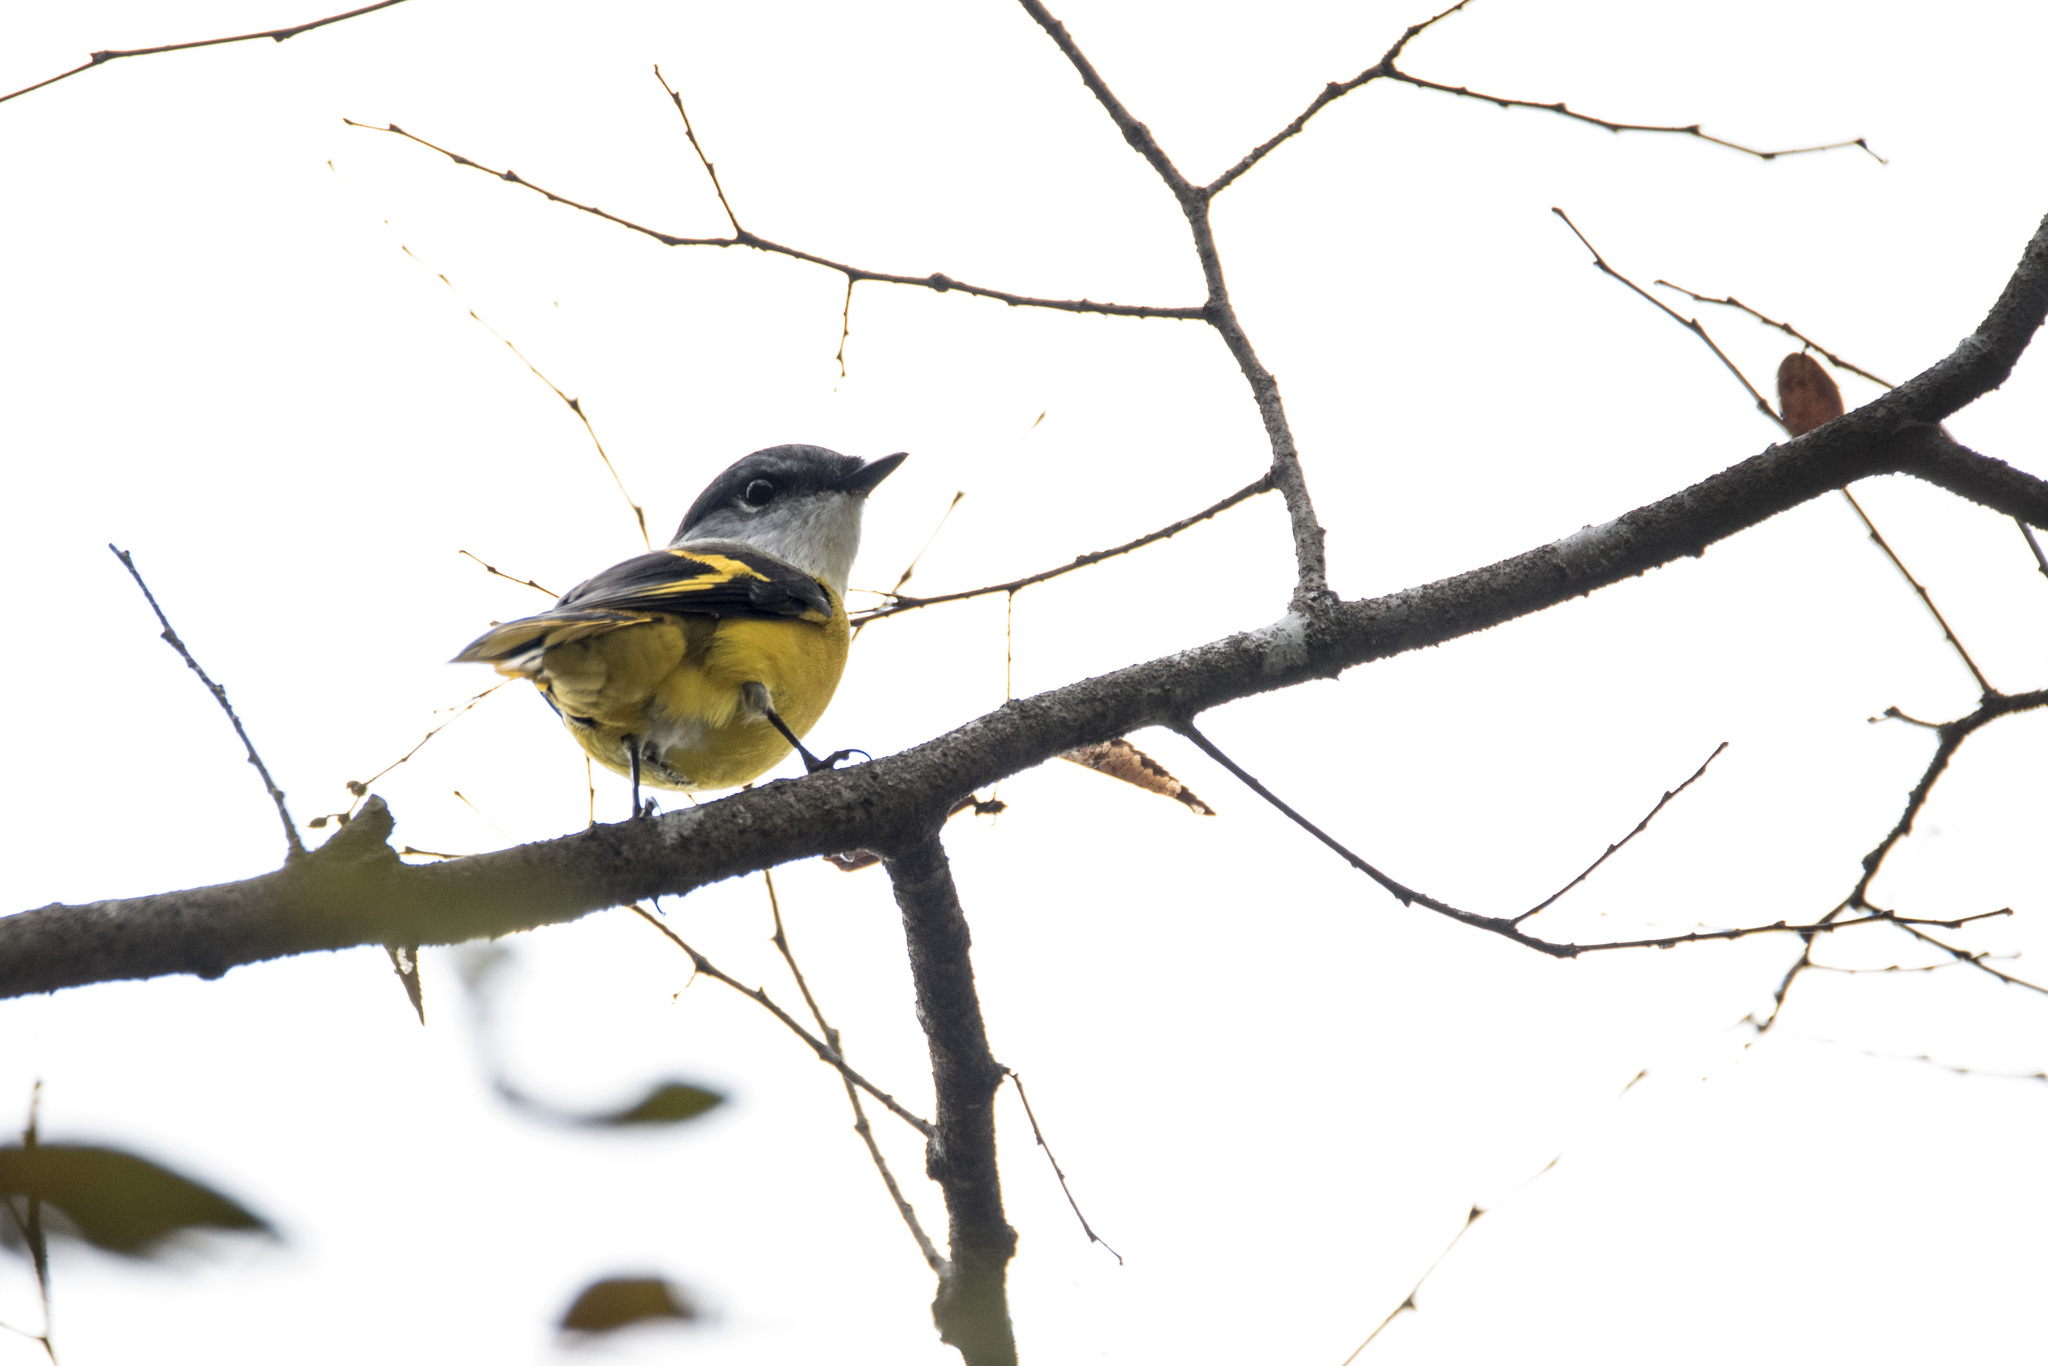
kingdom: Animalia
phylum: Chordata
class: Aves
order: Passeriformes
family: Campephagidae
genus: Pericrocotus
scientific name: Pericrocotus solaris
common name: Grey-chinned minivet
